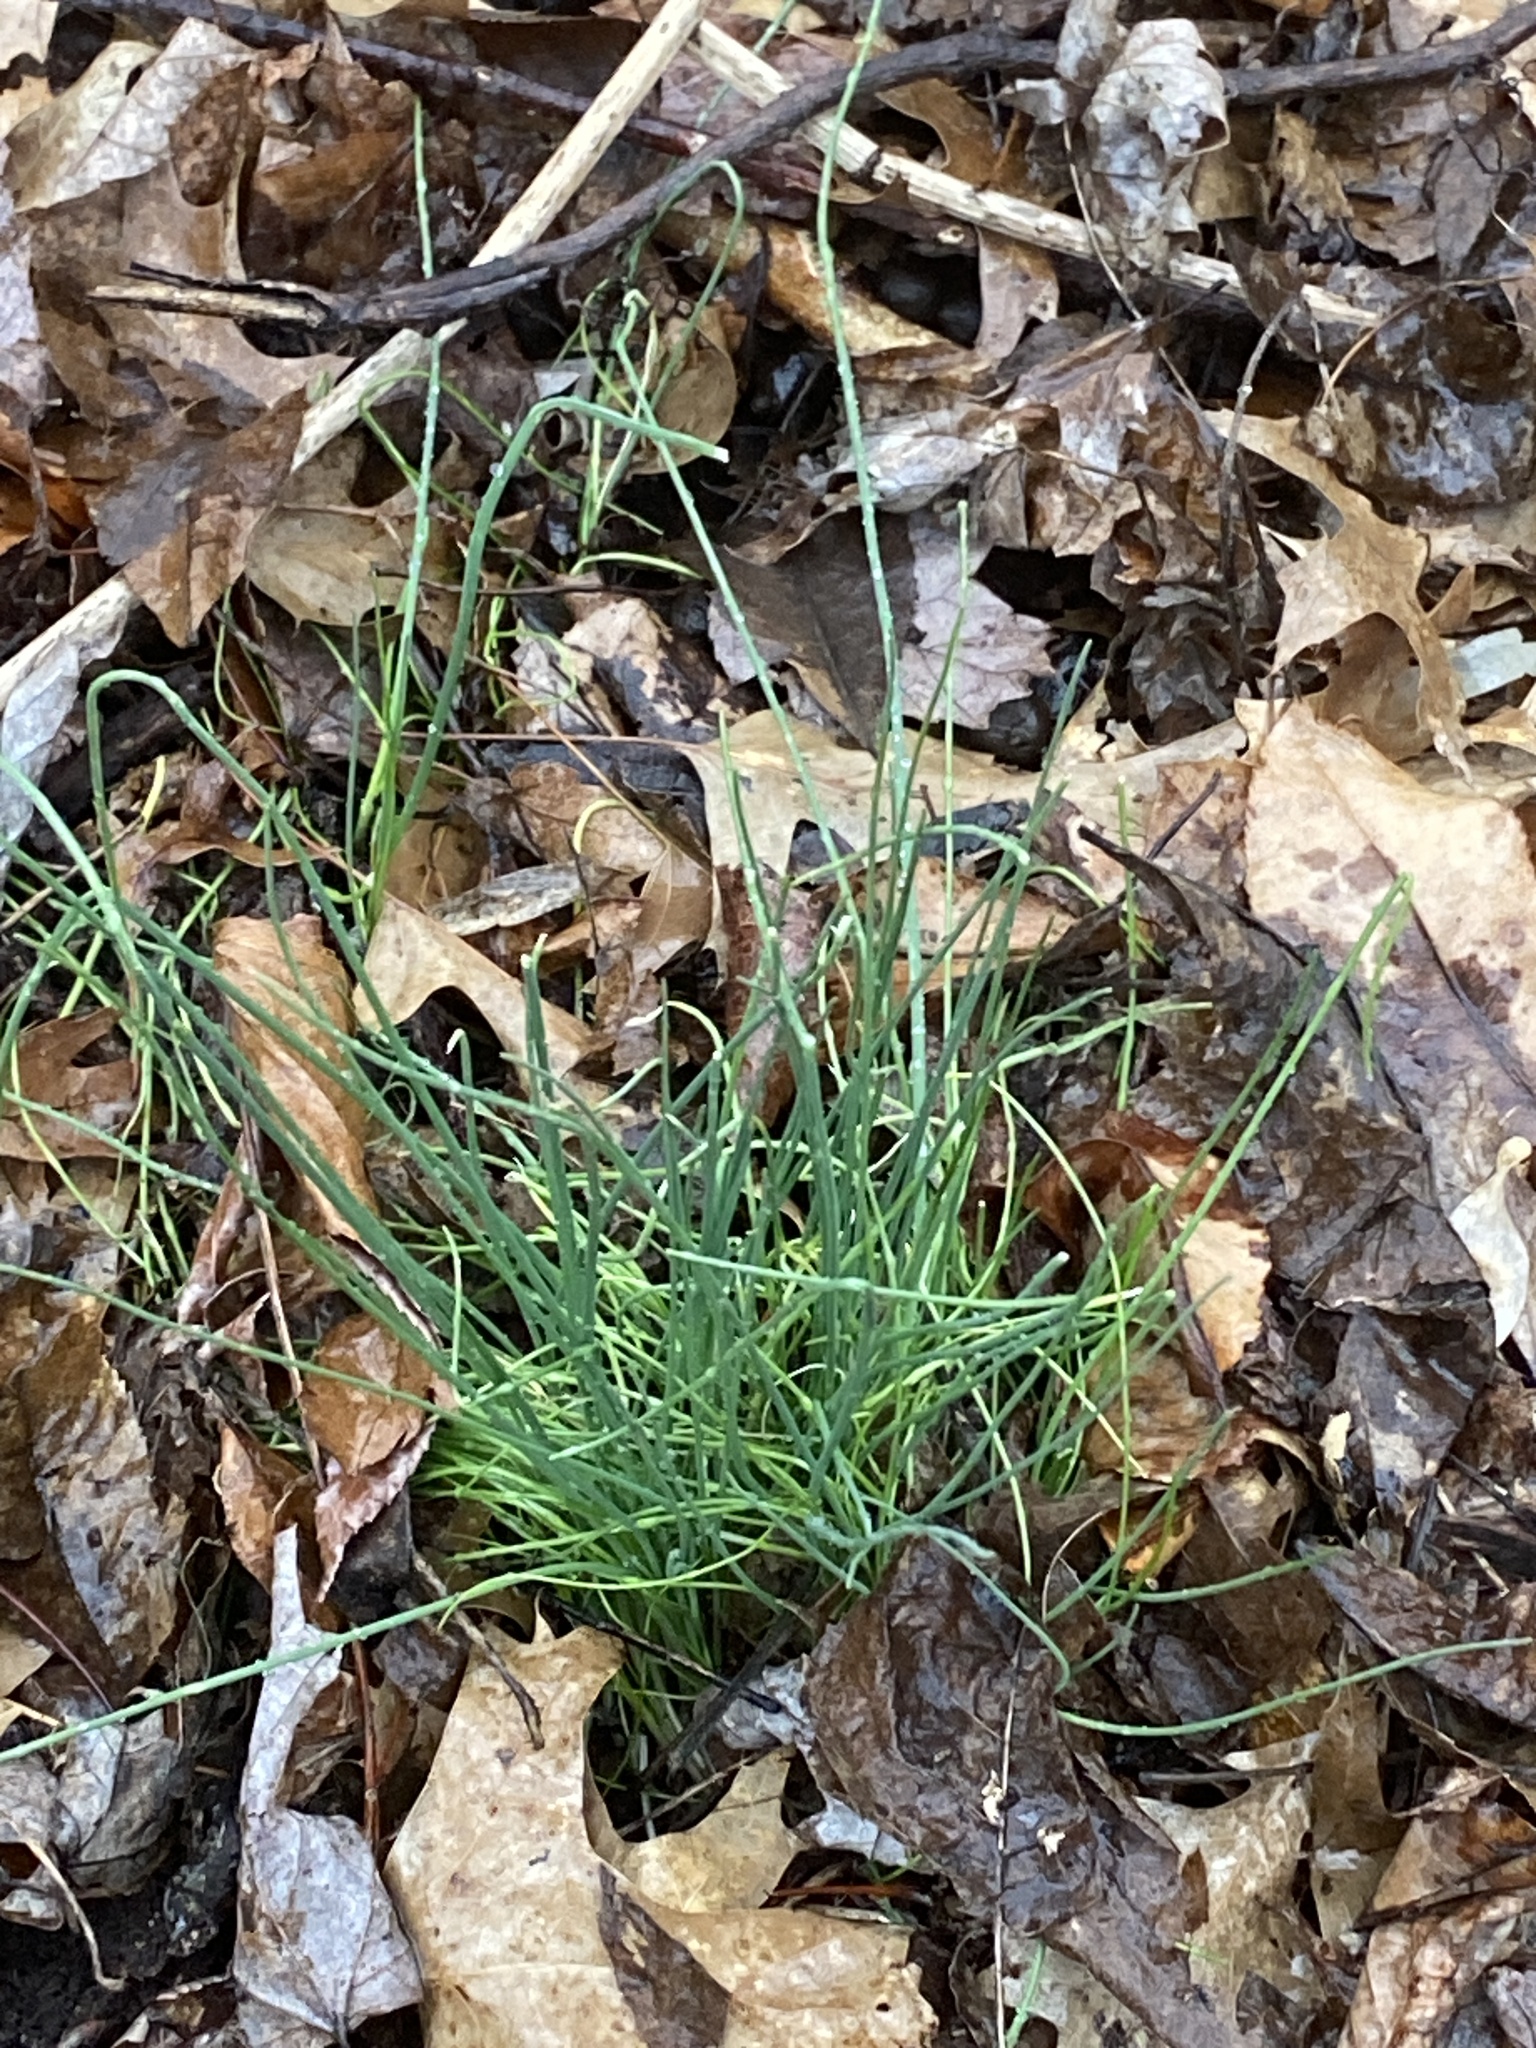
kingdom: Plantae
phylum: Tracheophyta
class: Liliopsida
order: Asparagales
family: Amaryllidaceae
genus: Allium
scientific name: Allium vineale
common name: Crow garlic
